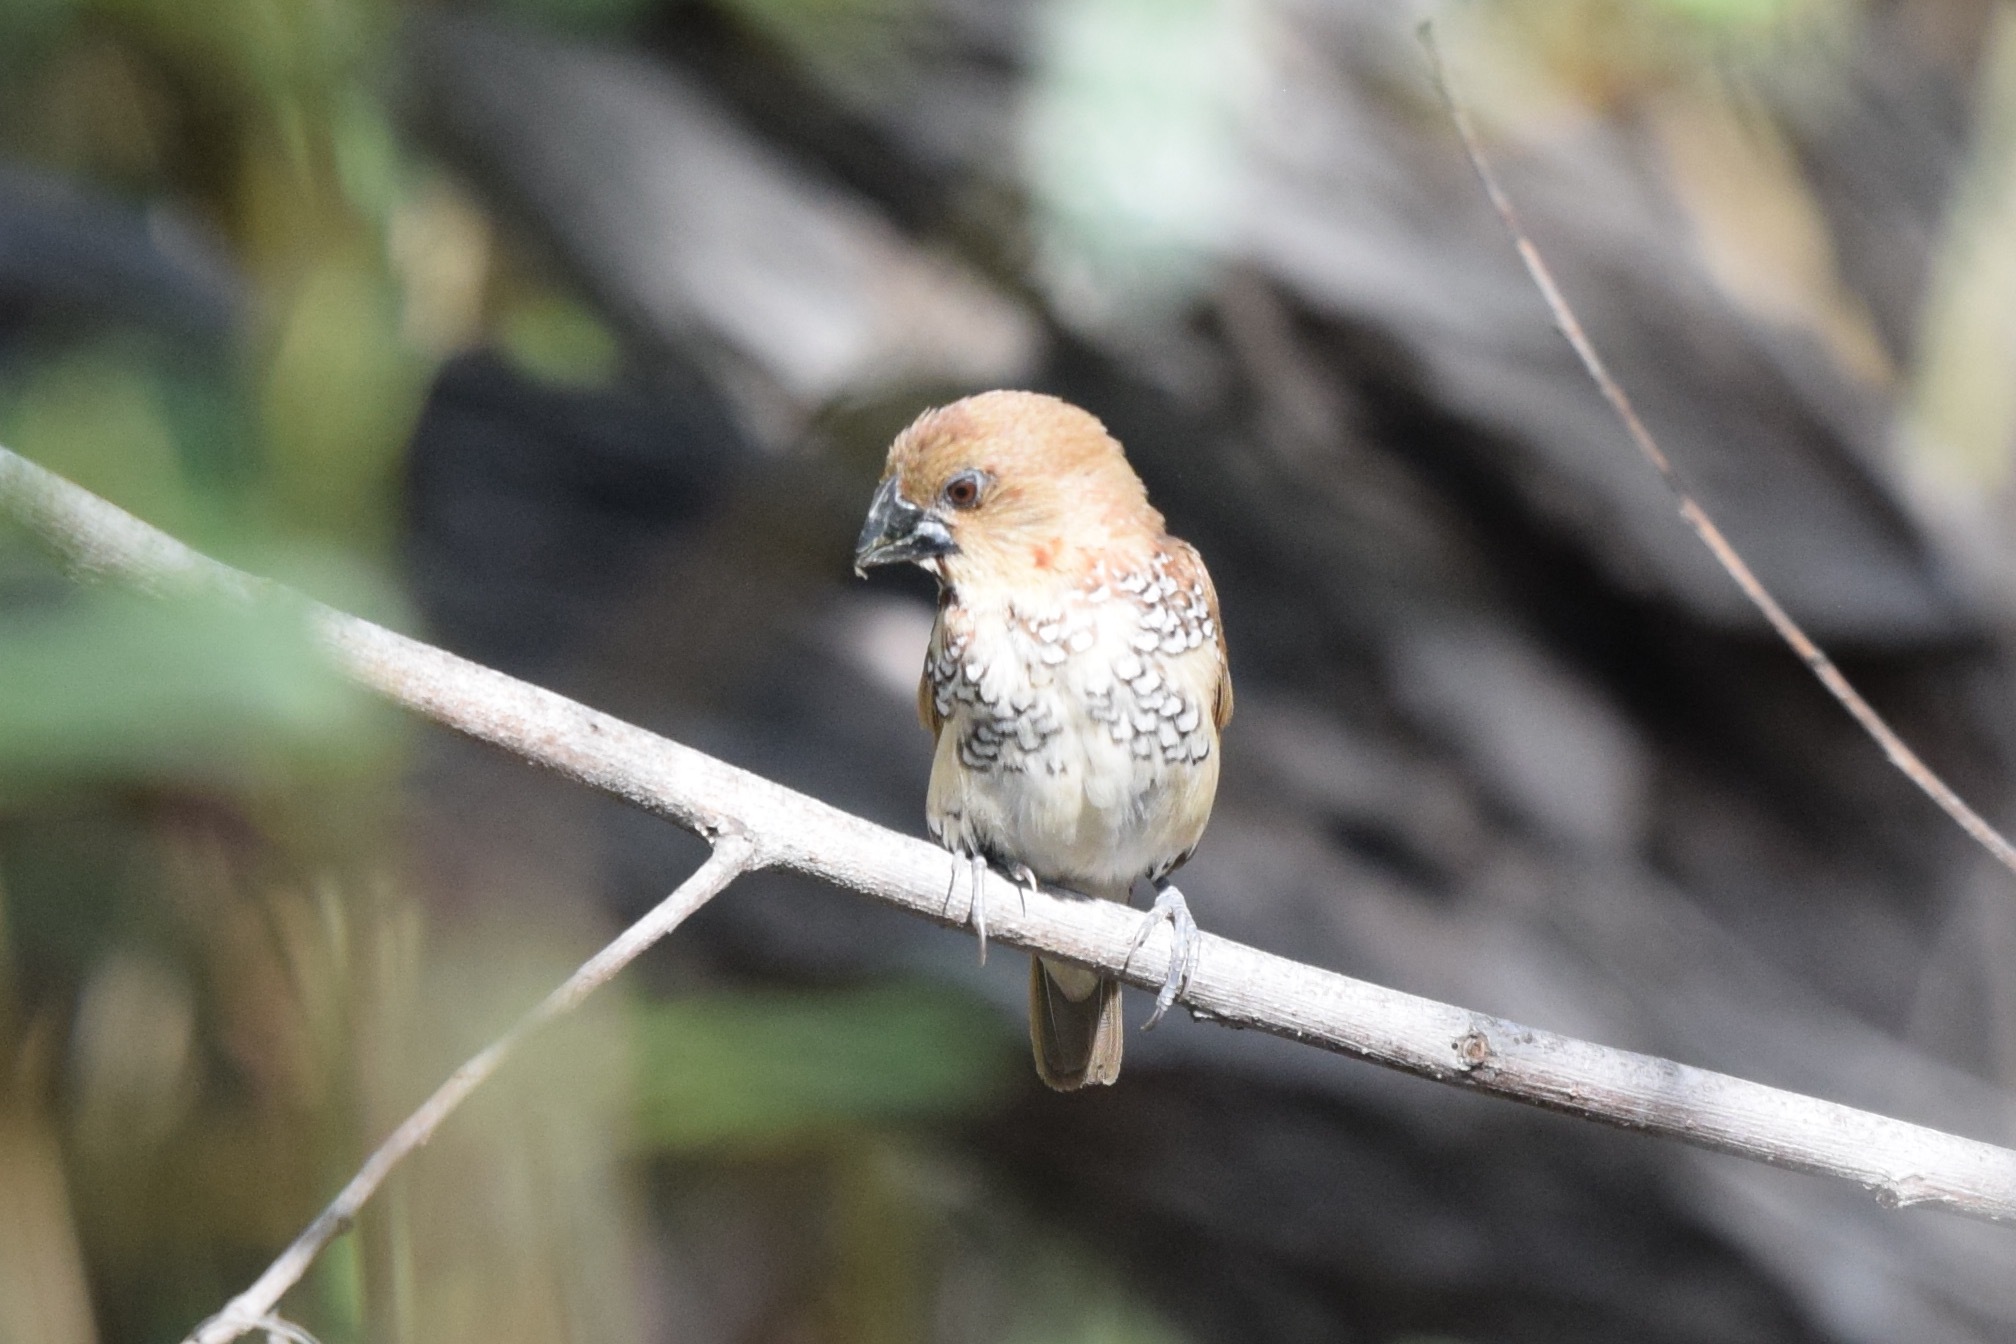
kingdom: Animalia
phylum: Chordata
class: Aves
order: Passeriformes
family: Estrildidae
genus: Lonchura
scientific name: Lonchura punctulata
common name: Scaly-breasted munia
